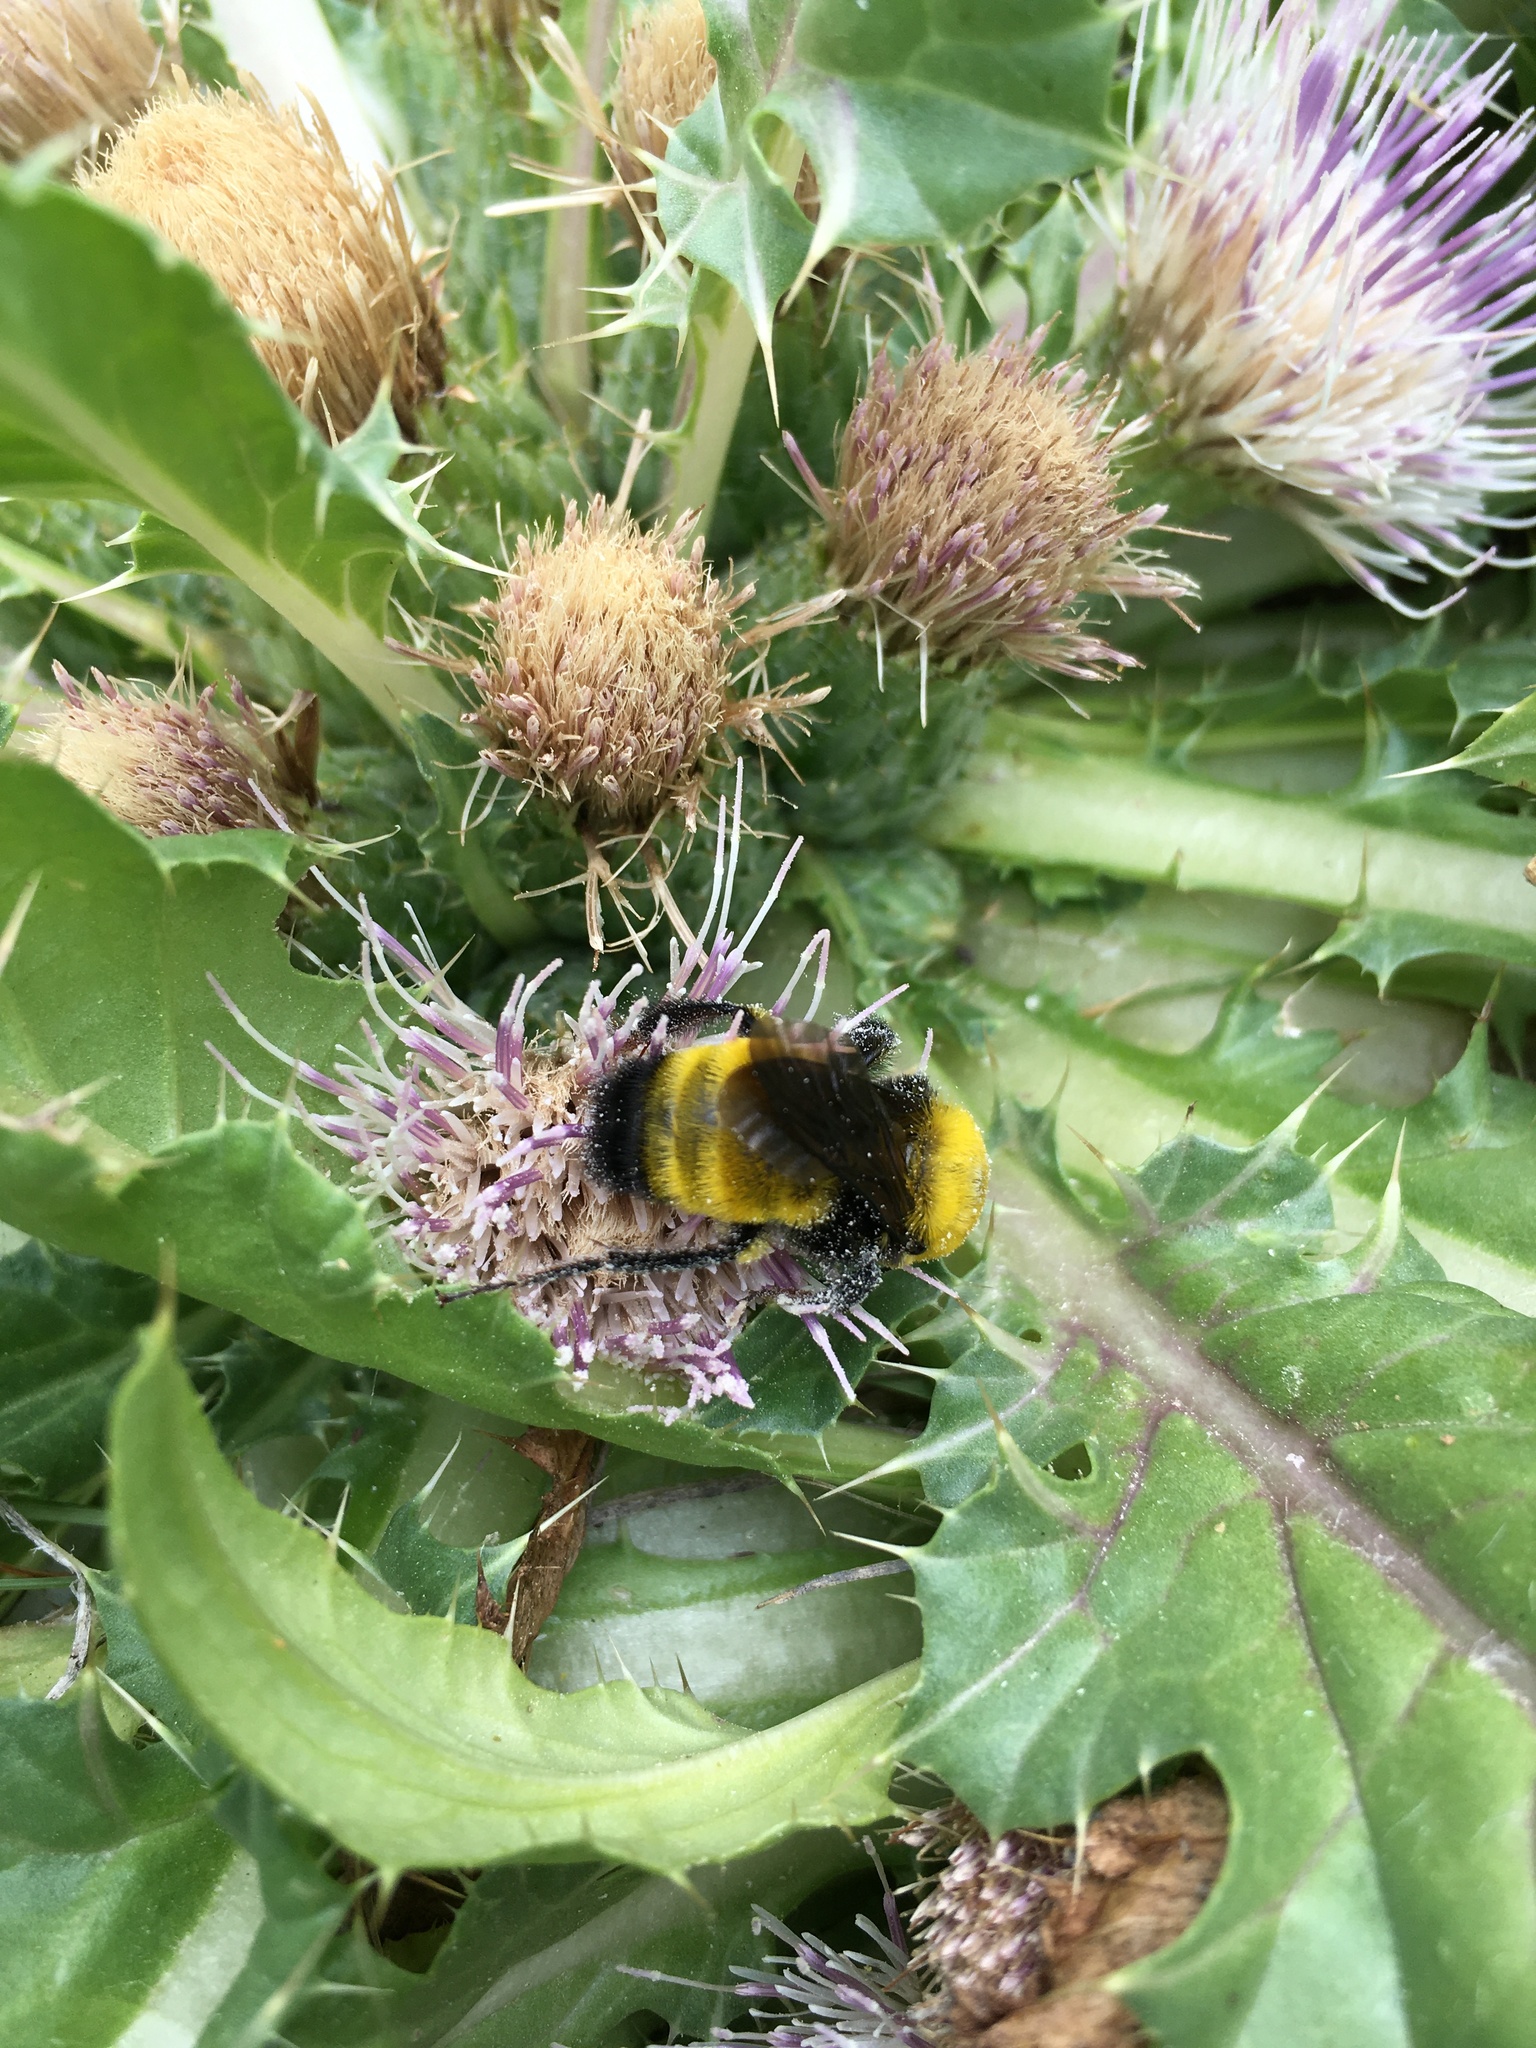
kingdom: Animalia
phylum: Arthropoda
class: Insecta
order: Hymenoptera
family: Apidae
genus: Bombus
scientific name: Bombus morrisoni
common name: Morrison bumble bee
